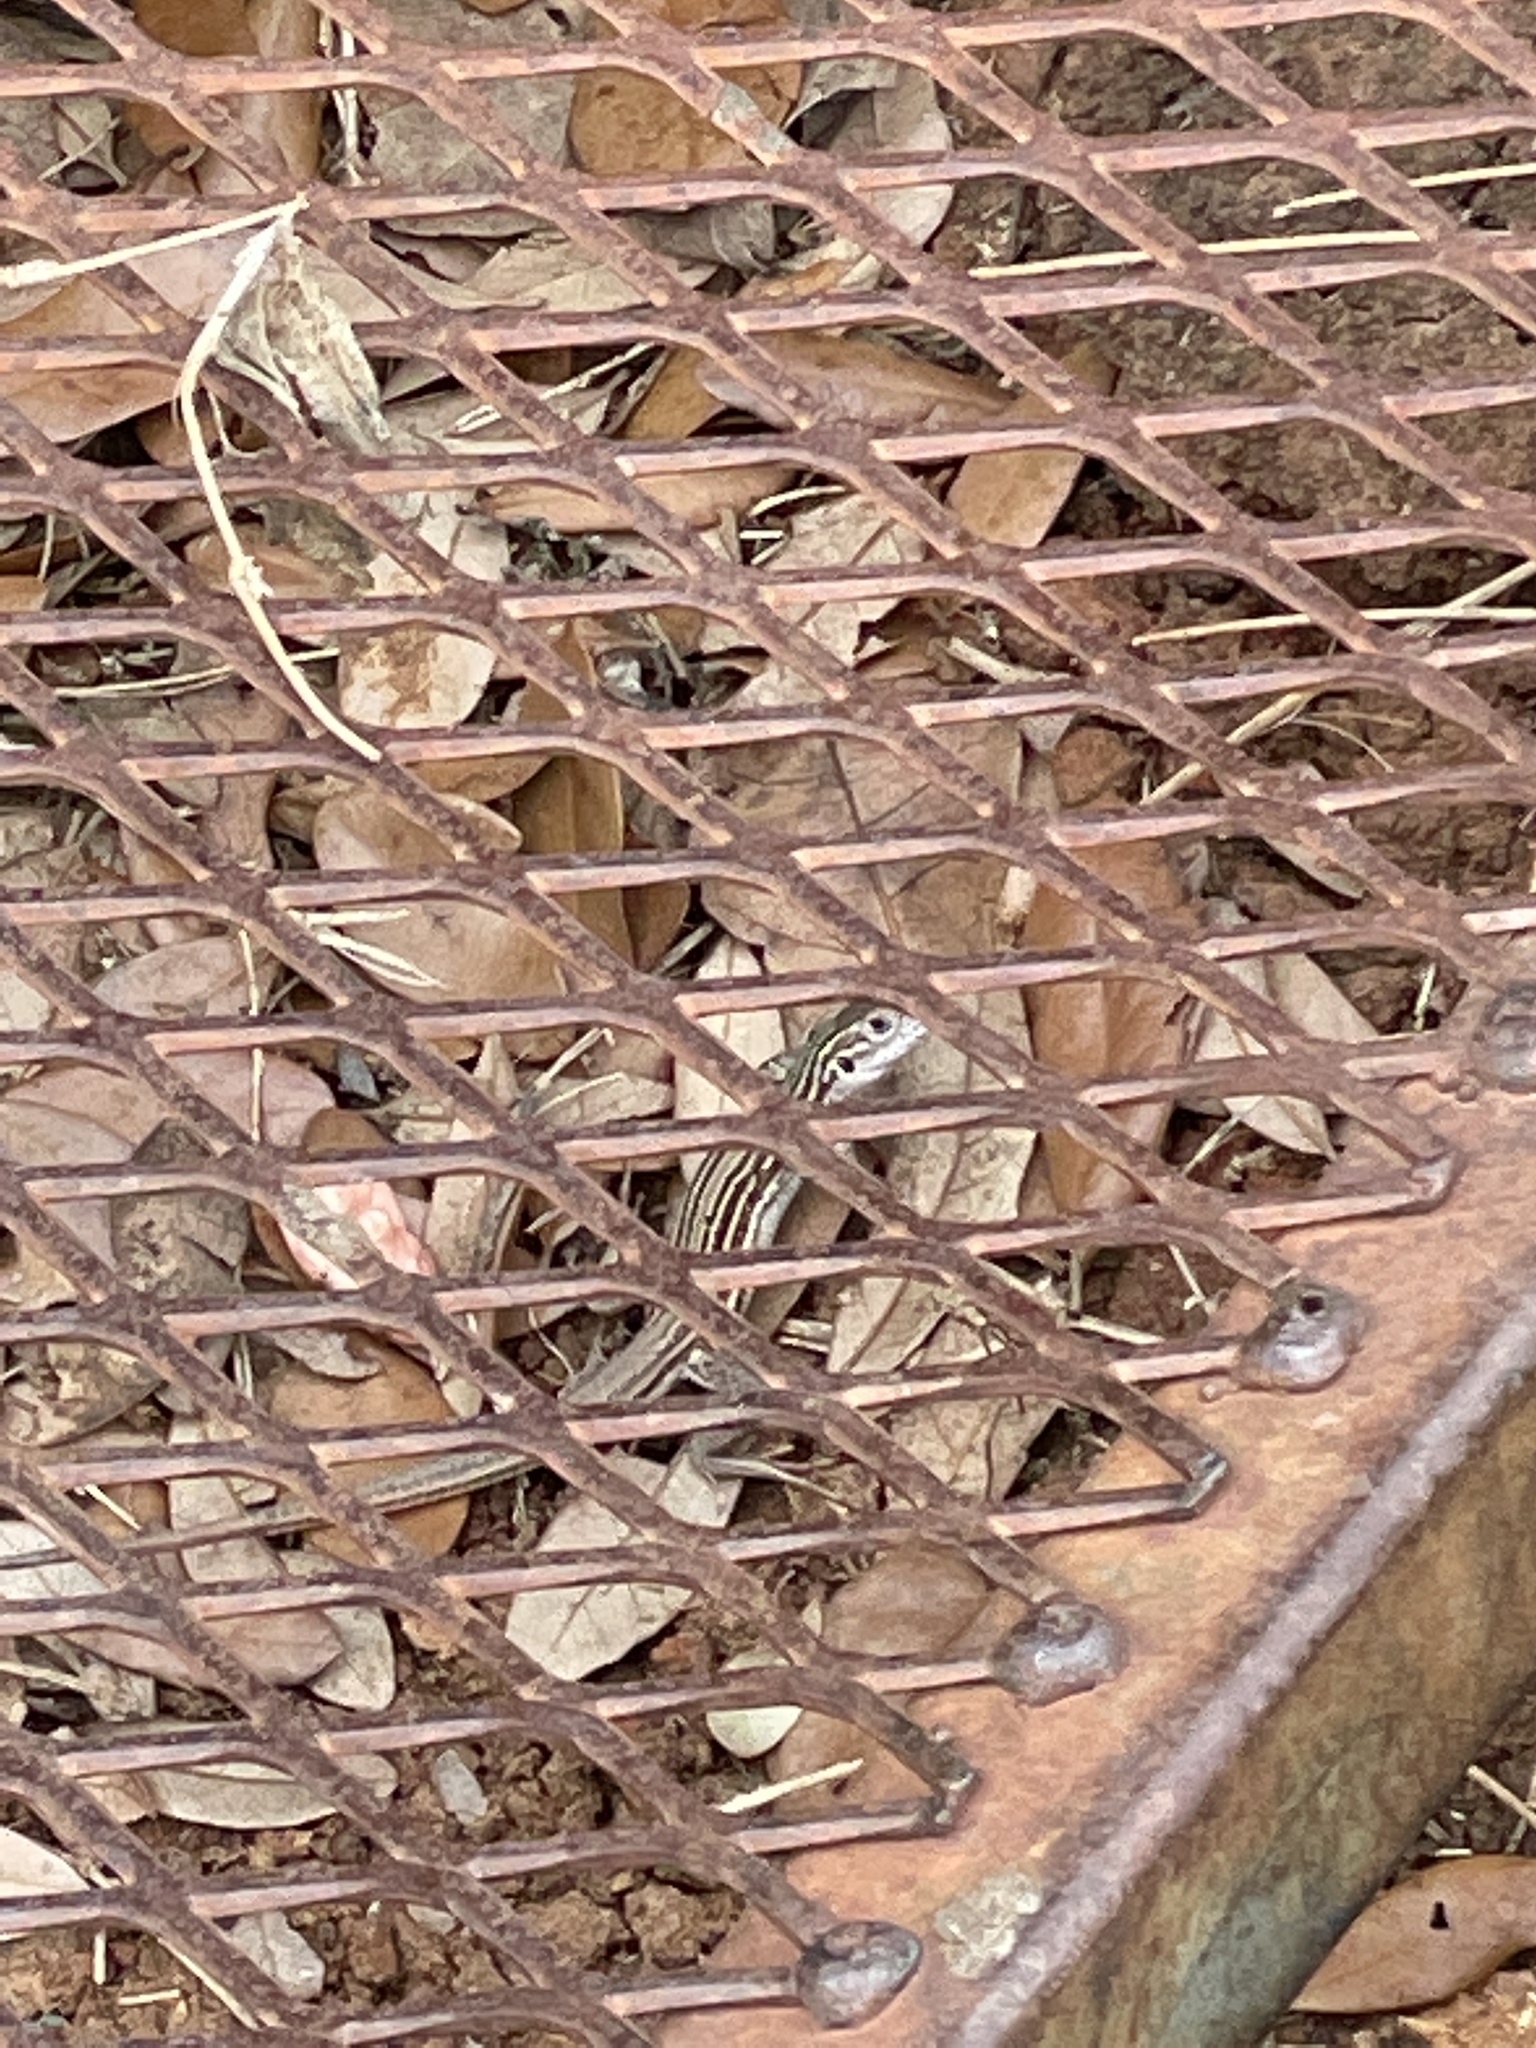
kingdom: Animalia
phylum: Chordata
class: Squamata
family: Teiidae
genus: Aspidoscelis
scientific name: Aspidoscelis gularis
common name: Eastern spotted whiptail
